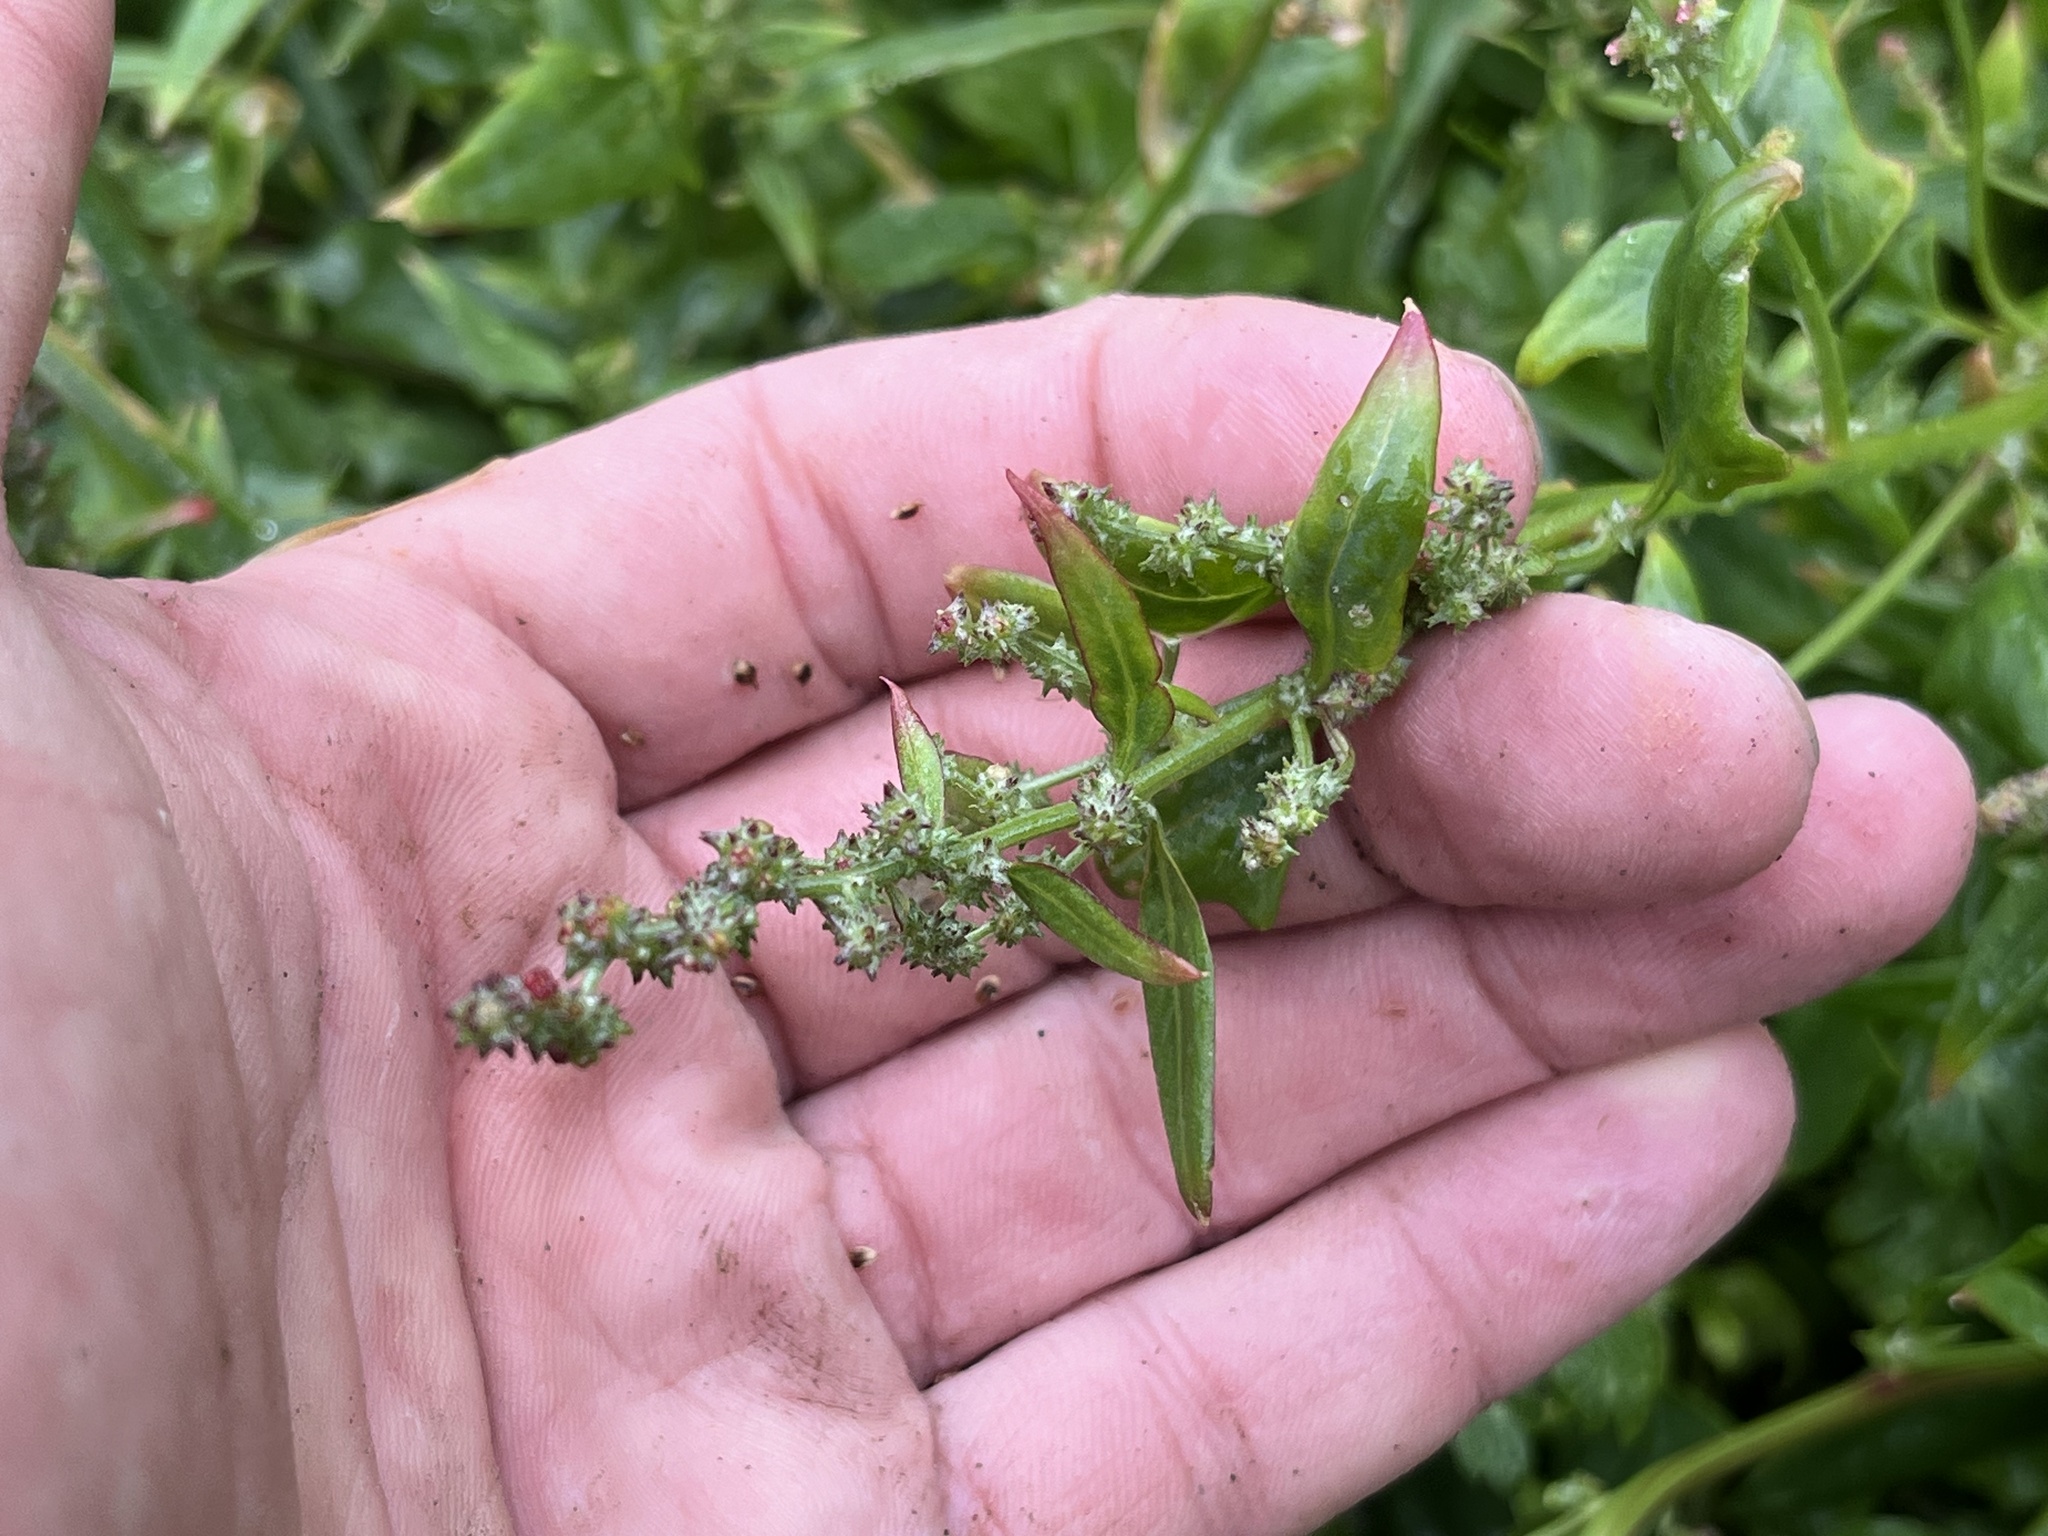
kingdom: Plantae
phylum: Tracheophyta
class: Magnoliopsida
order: Caryophyllales
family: Amaranthaceae
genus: Atriplex
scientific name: Atriplex prostrata
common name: Spear-leaved orache
